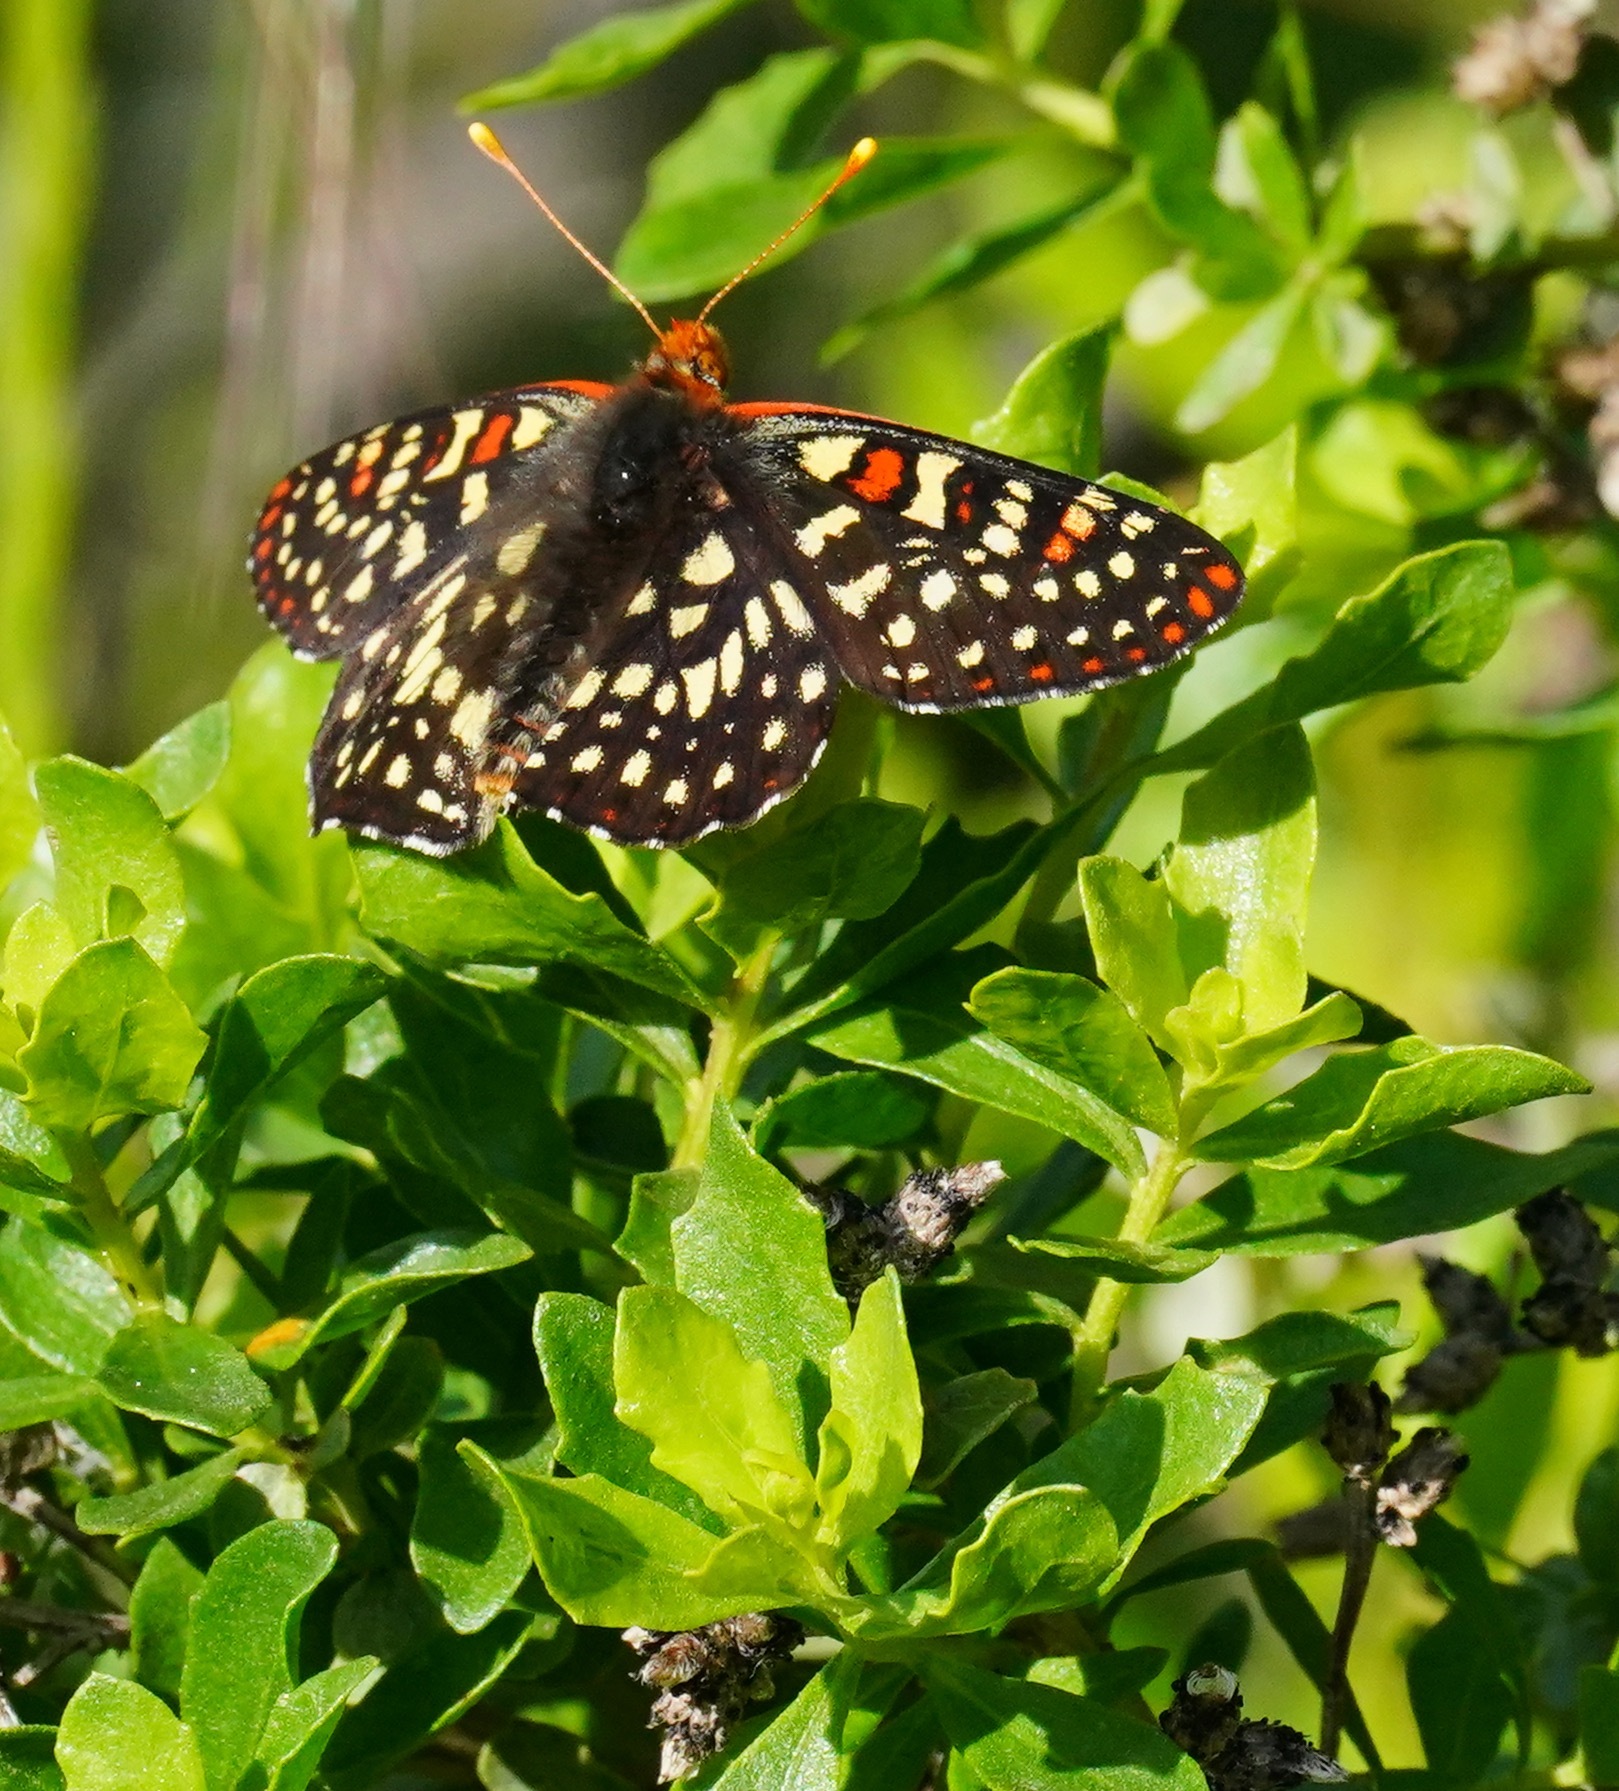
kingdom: Animalia
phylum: Arthropoda
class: Insecta
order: Lepidoptera
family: Nymphalidae
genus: Occidryas
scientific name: Occidryas chalcedona
